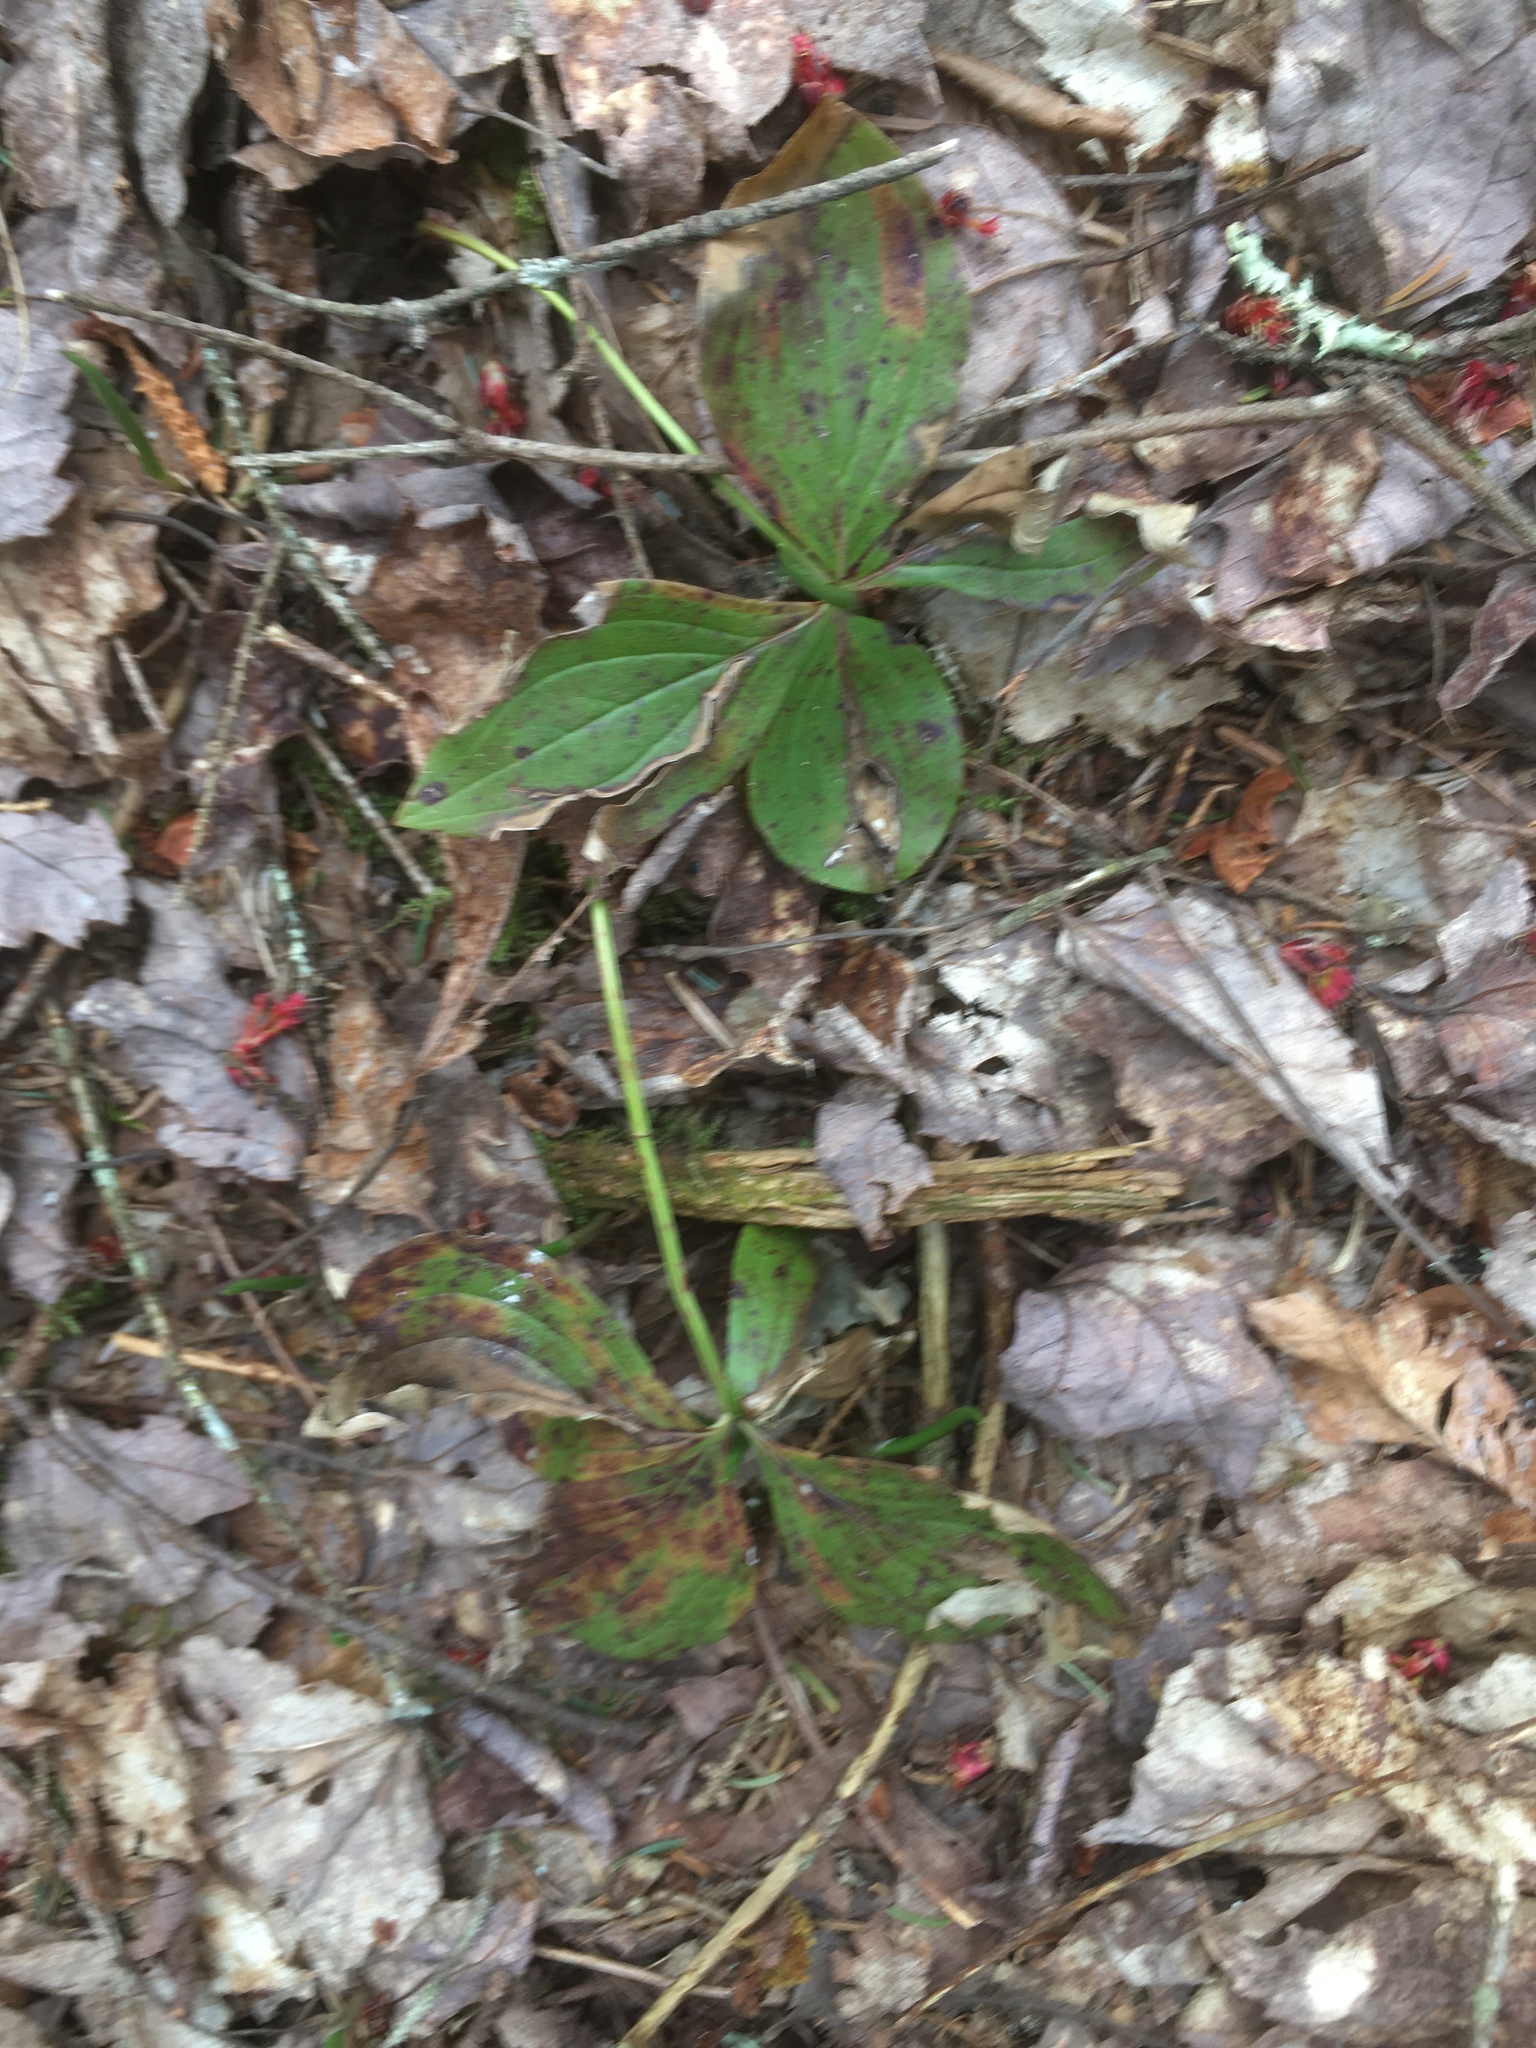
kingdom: Plantae
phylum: Tracheophyta
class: Magnoliopsida
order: Cornales
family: Cornaceae
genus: Cornus
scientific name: Cornus canadensis
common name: Creeping dogwood
